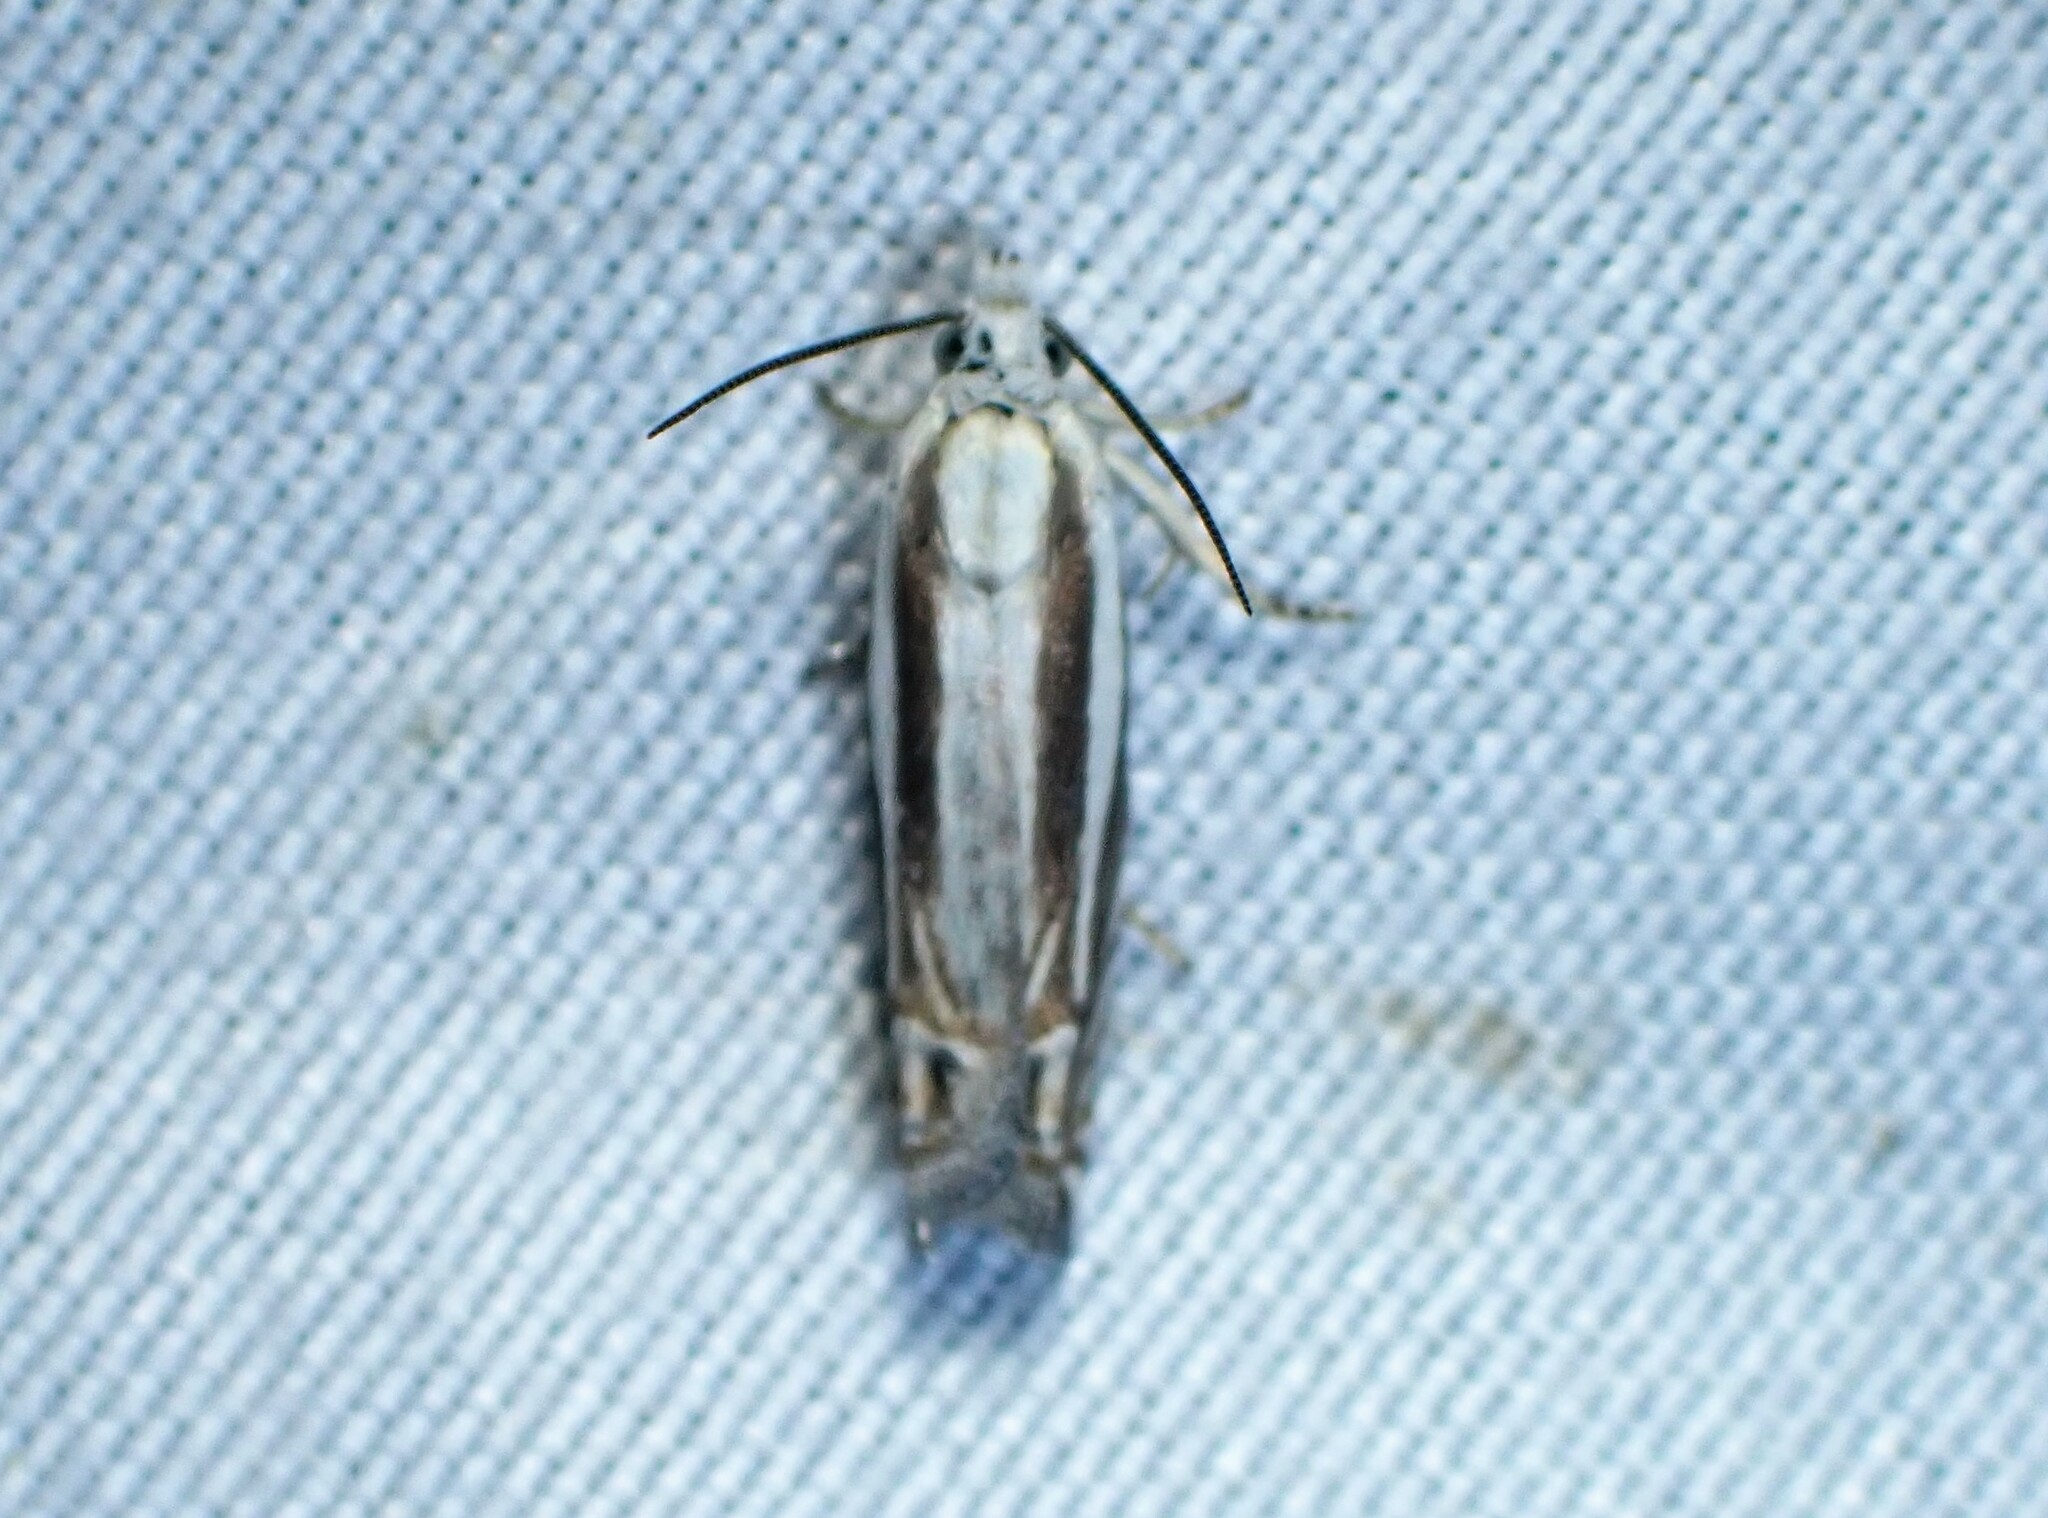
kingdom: Animalia
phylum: Arthropoda
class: Insecta
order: Lepidoptera
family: Tortricidae
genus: Eucosma
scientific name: Eucosma striatana
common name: Striated eucosma moth
